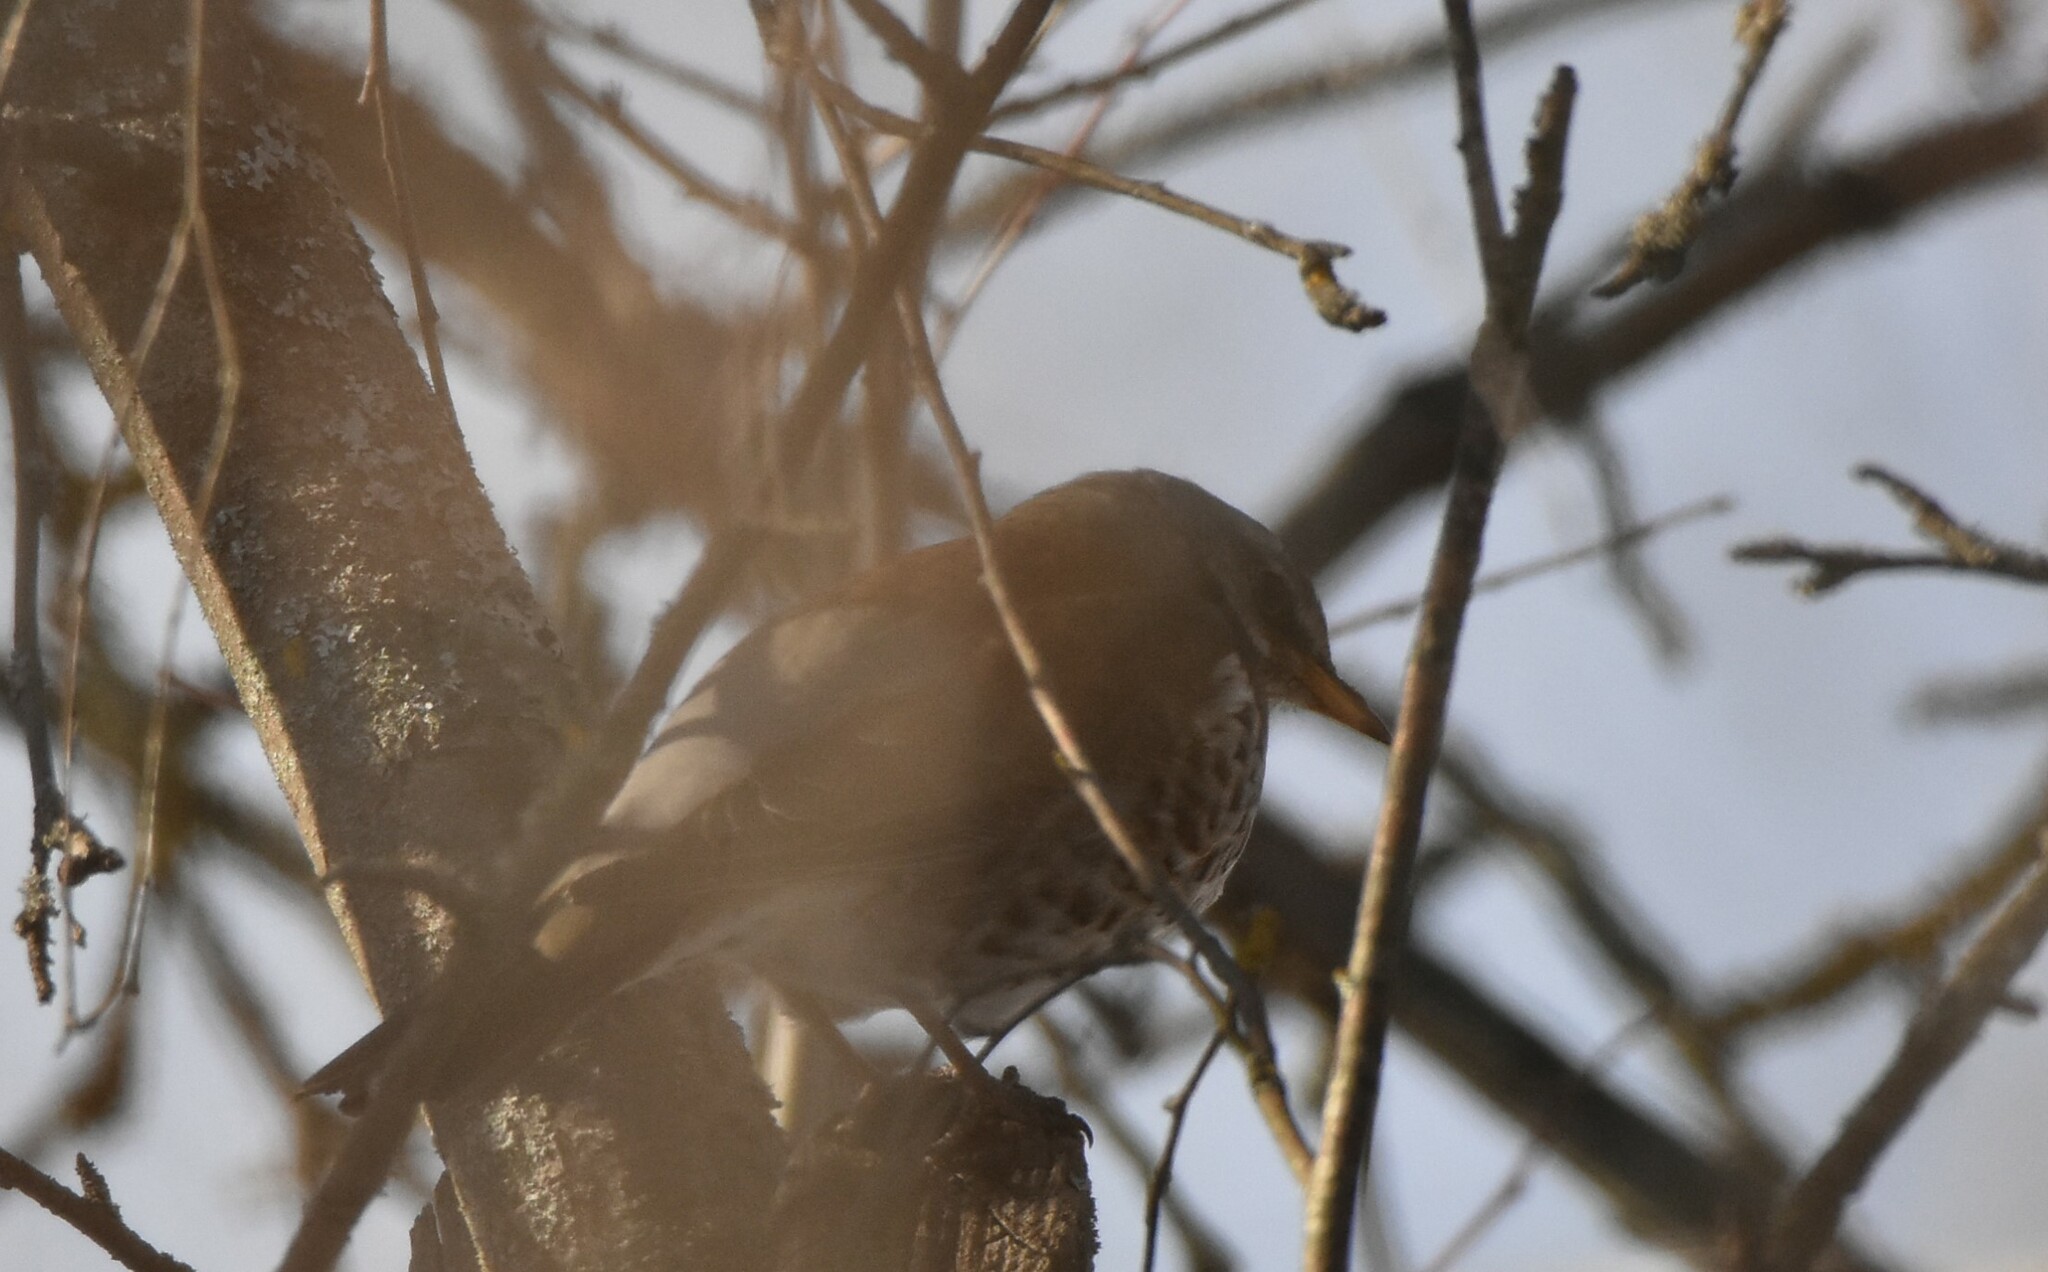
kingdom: Animalia
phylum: Chordata
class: Aves
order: Passeriformes
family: Turdidae
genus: Turdus
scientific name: Turdus pilaris
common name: Fieldfare
